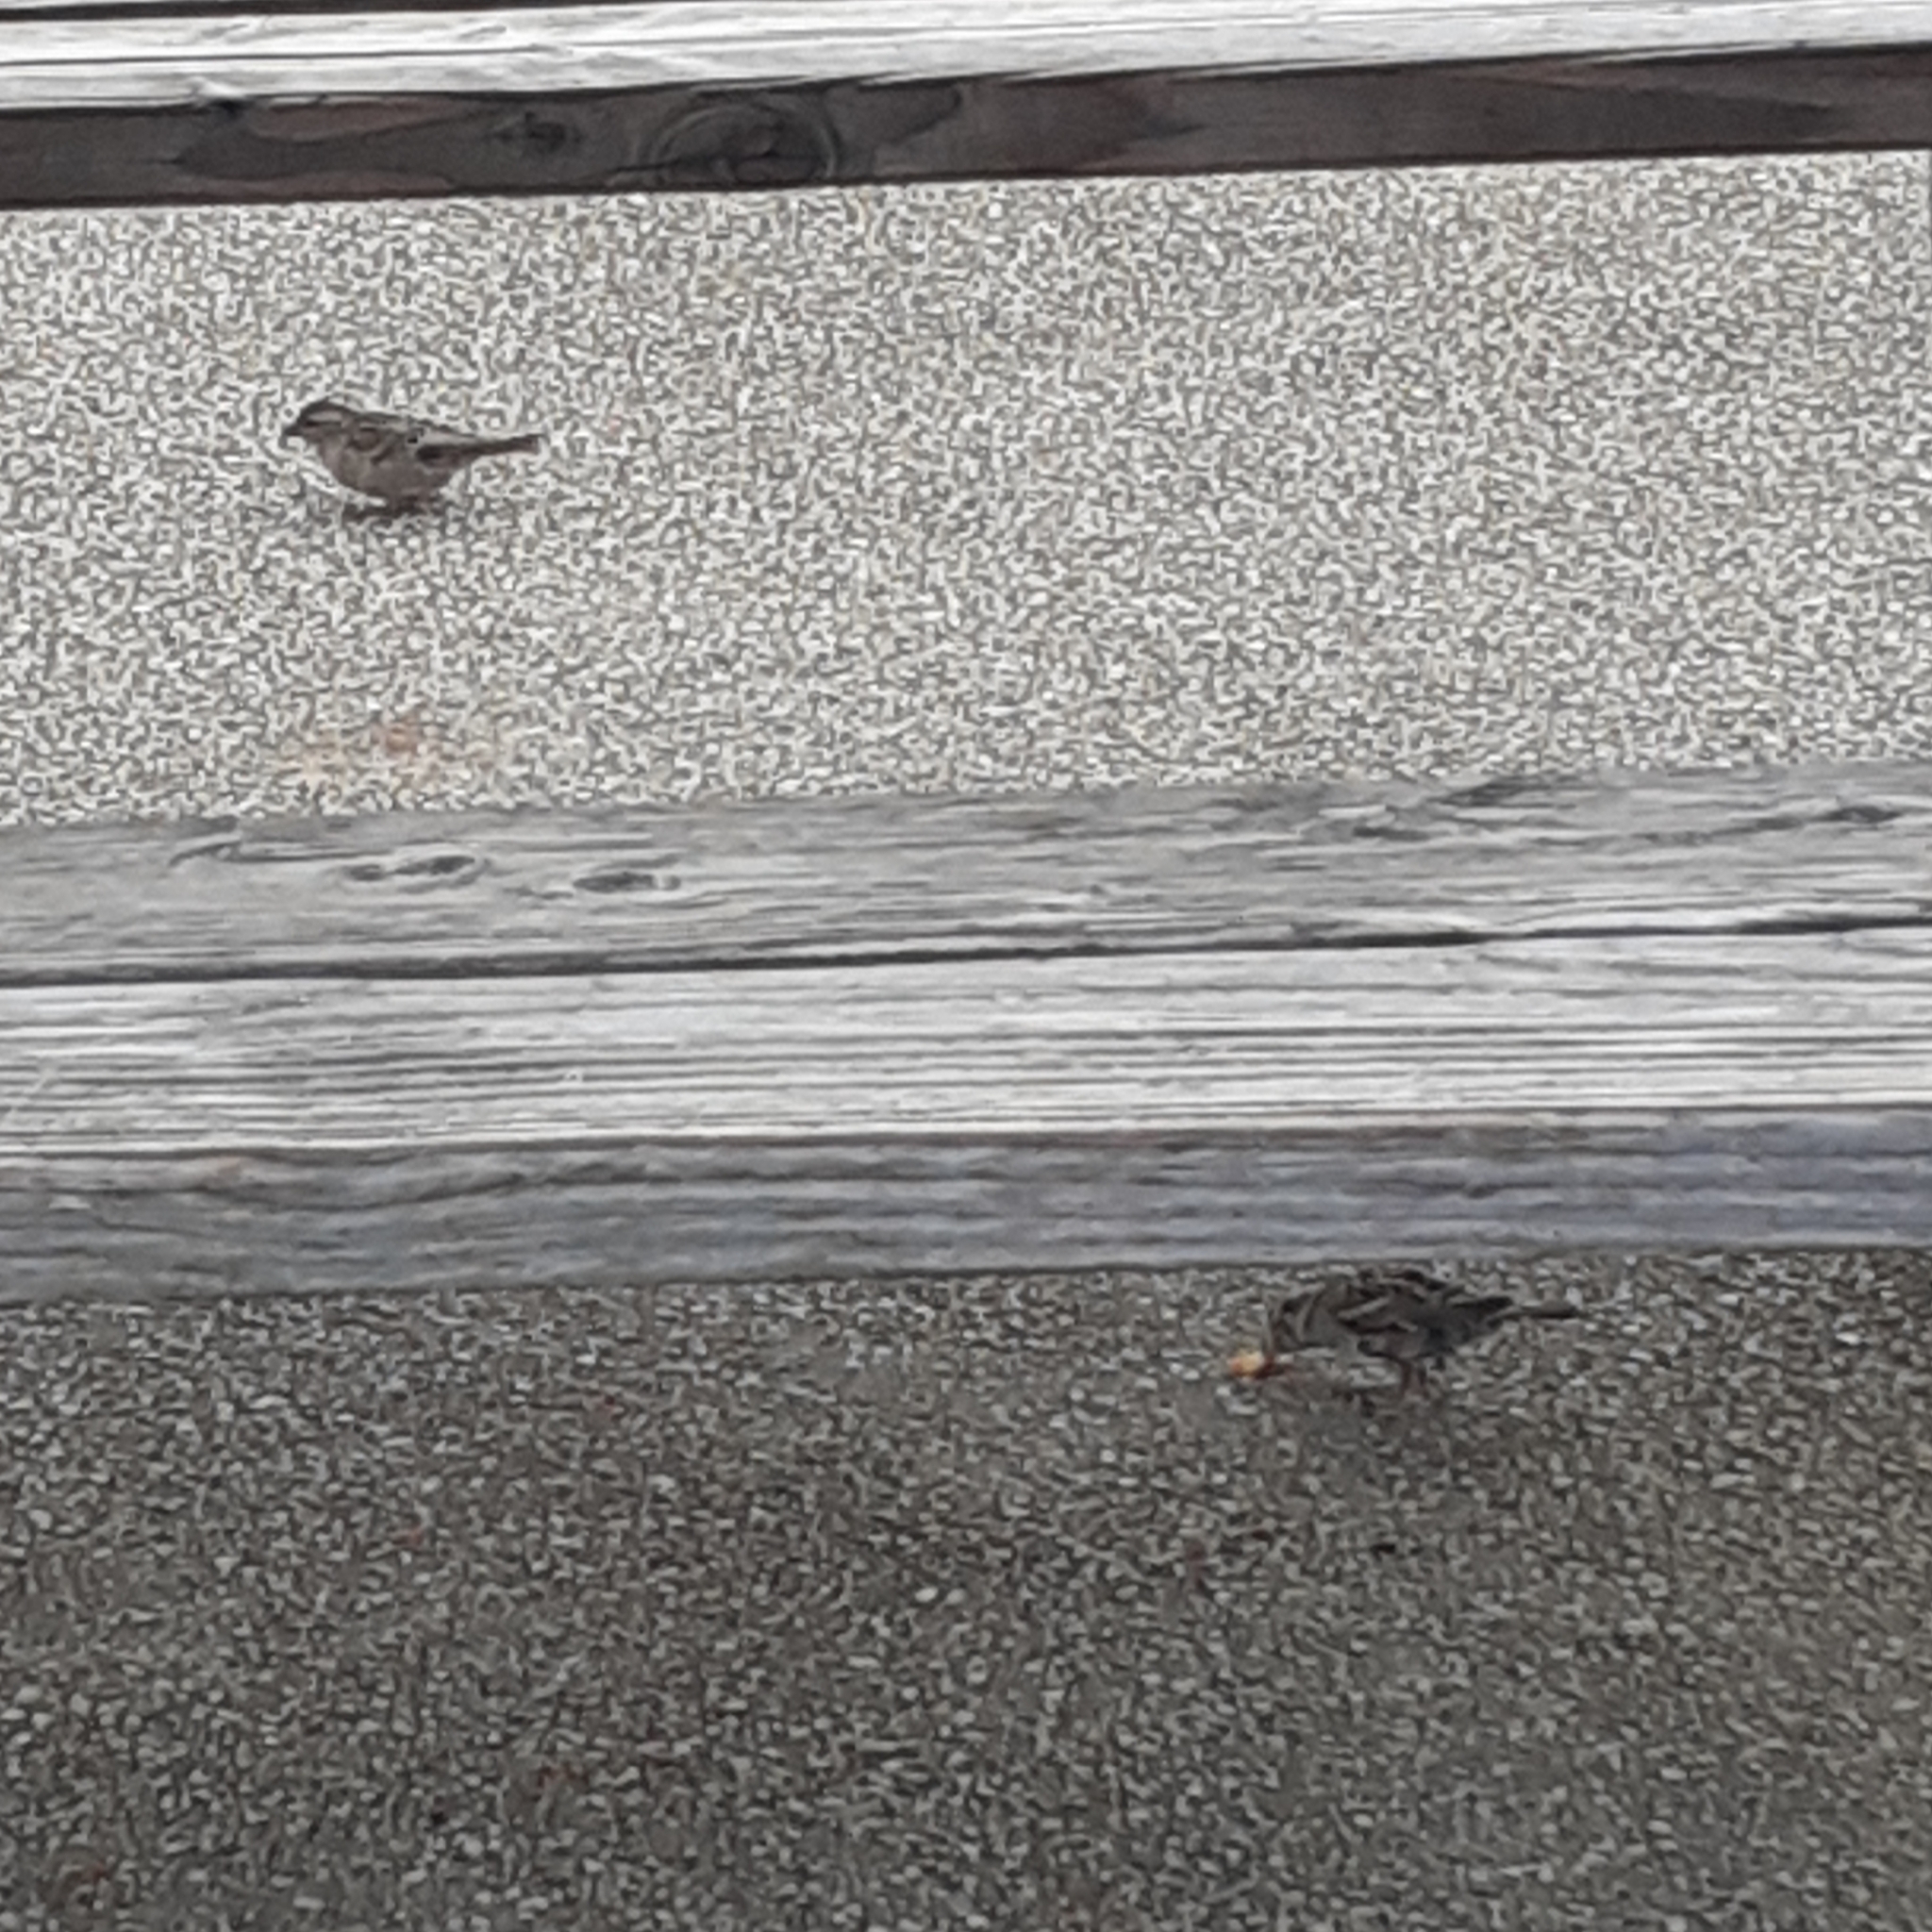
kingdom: Animalia
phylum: Chordata
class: Aves
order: Passeriformes
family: Passeridae
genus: Passer
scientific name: Passer domesticus
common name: House sparrow
